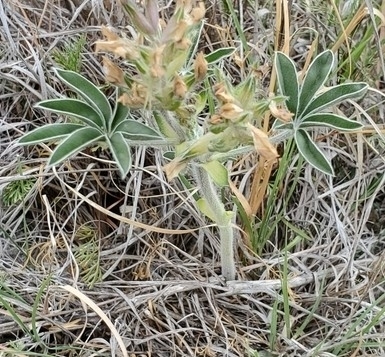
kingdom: Plantae
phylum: Tracheophyta
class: Magnoliopsida
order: Fabales
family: Fabaceae
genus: Pediomelum
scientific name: Pediomelum latestipulatum
